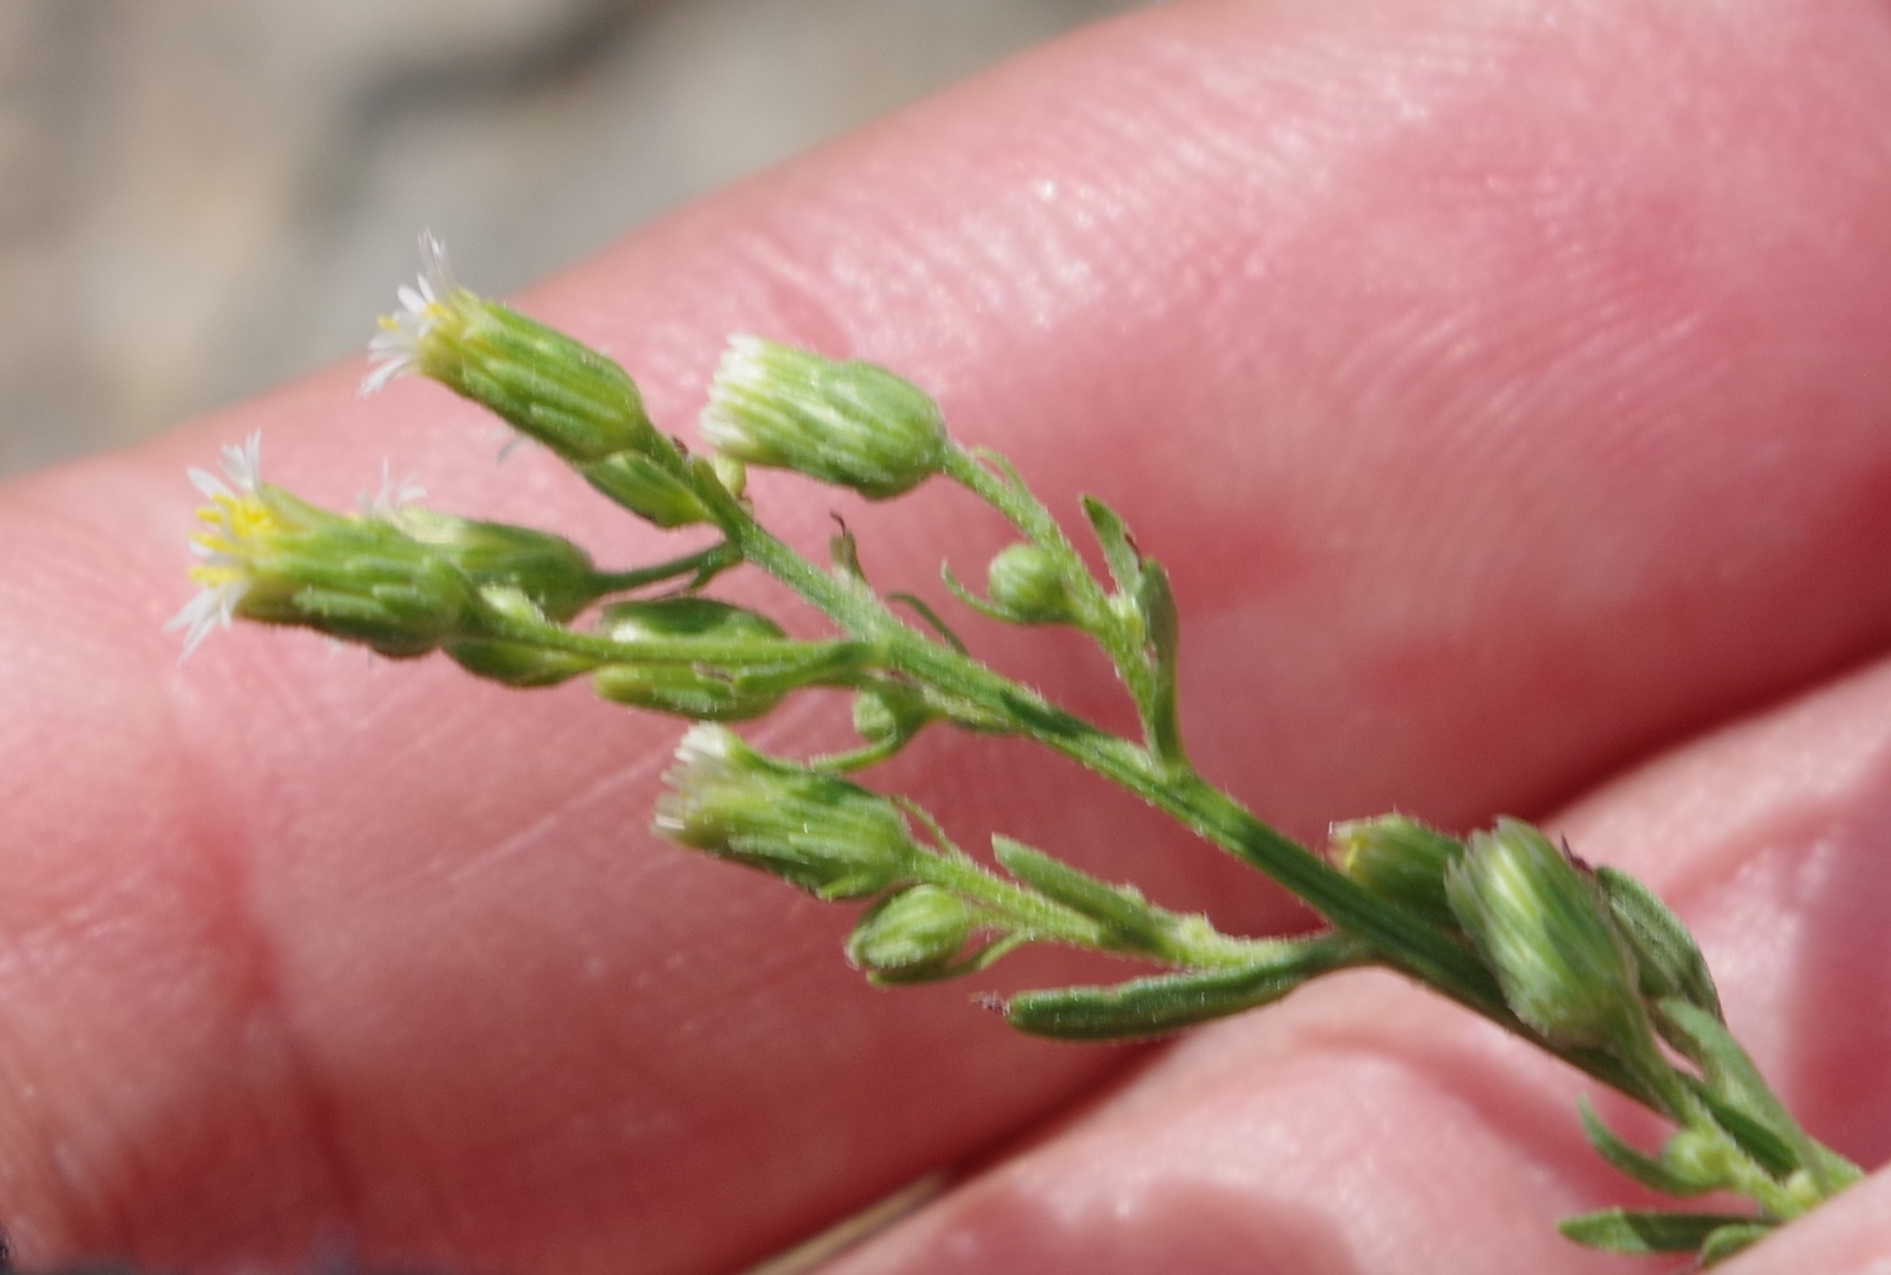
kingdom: Plantae
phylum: Tracheophyta
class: Magnoliopsida
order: Asterales
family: Asteraceae
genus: Erigeron
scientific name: Erigeron canadensis
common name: Canadian fleabane
